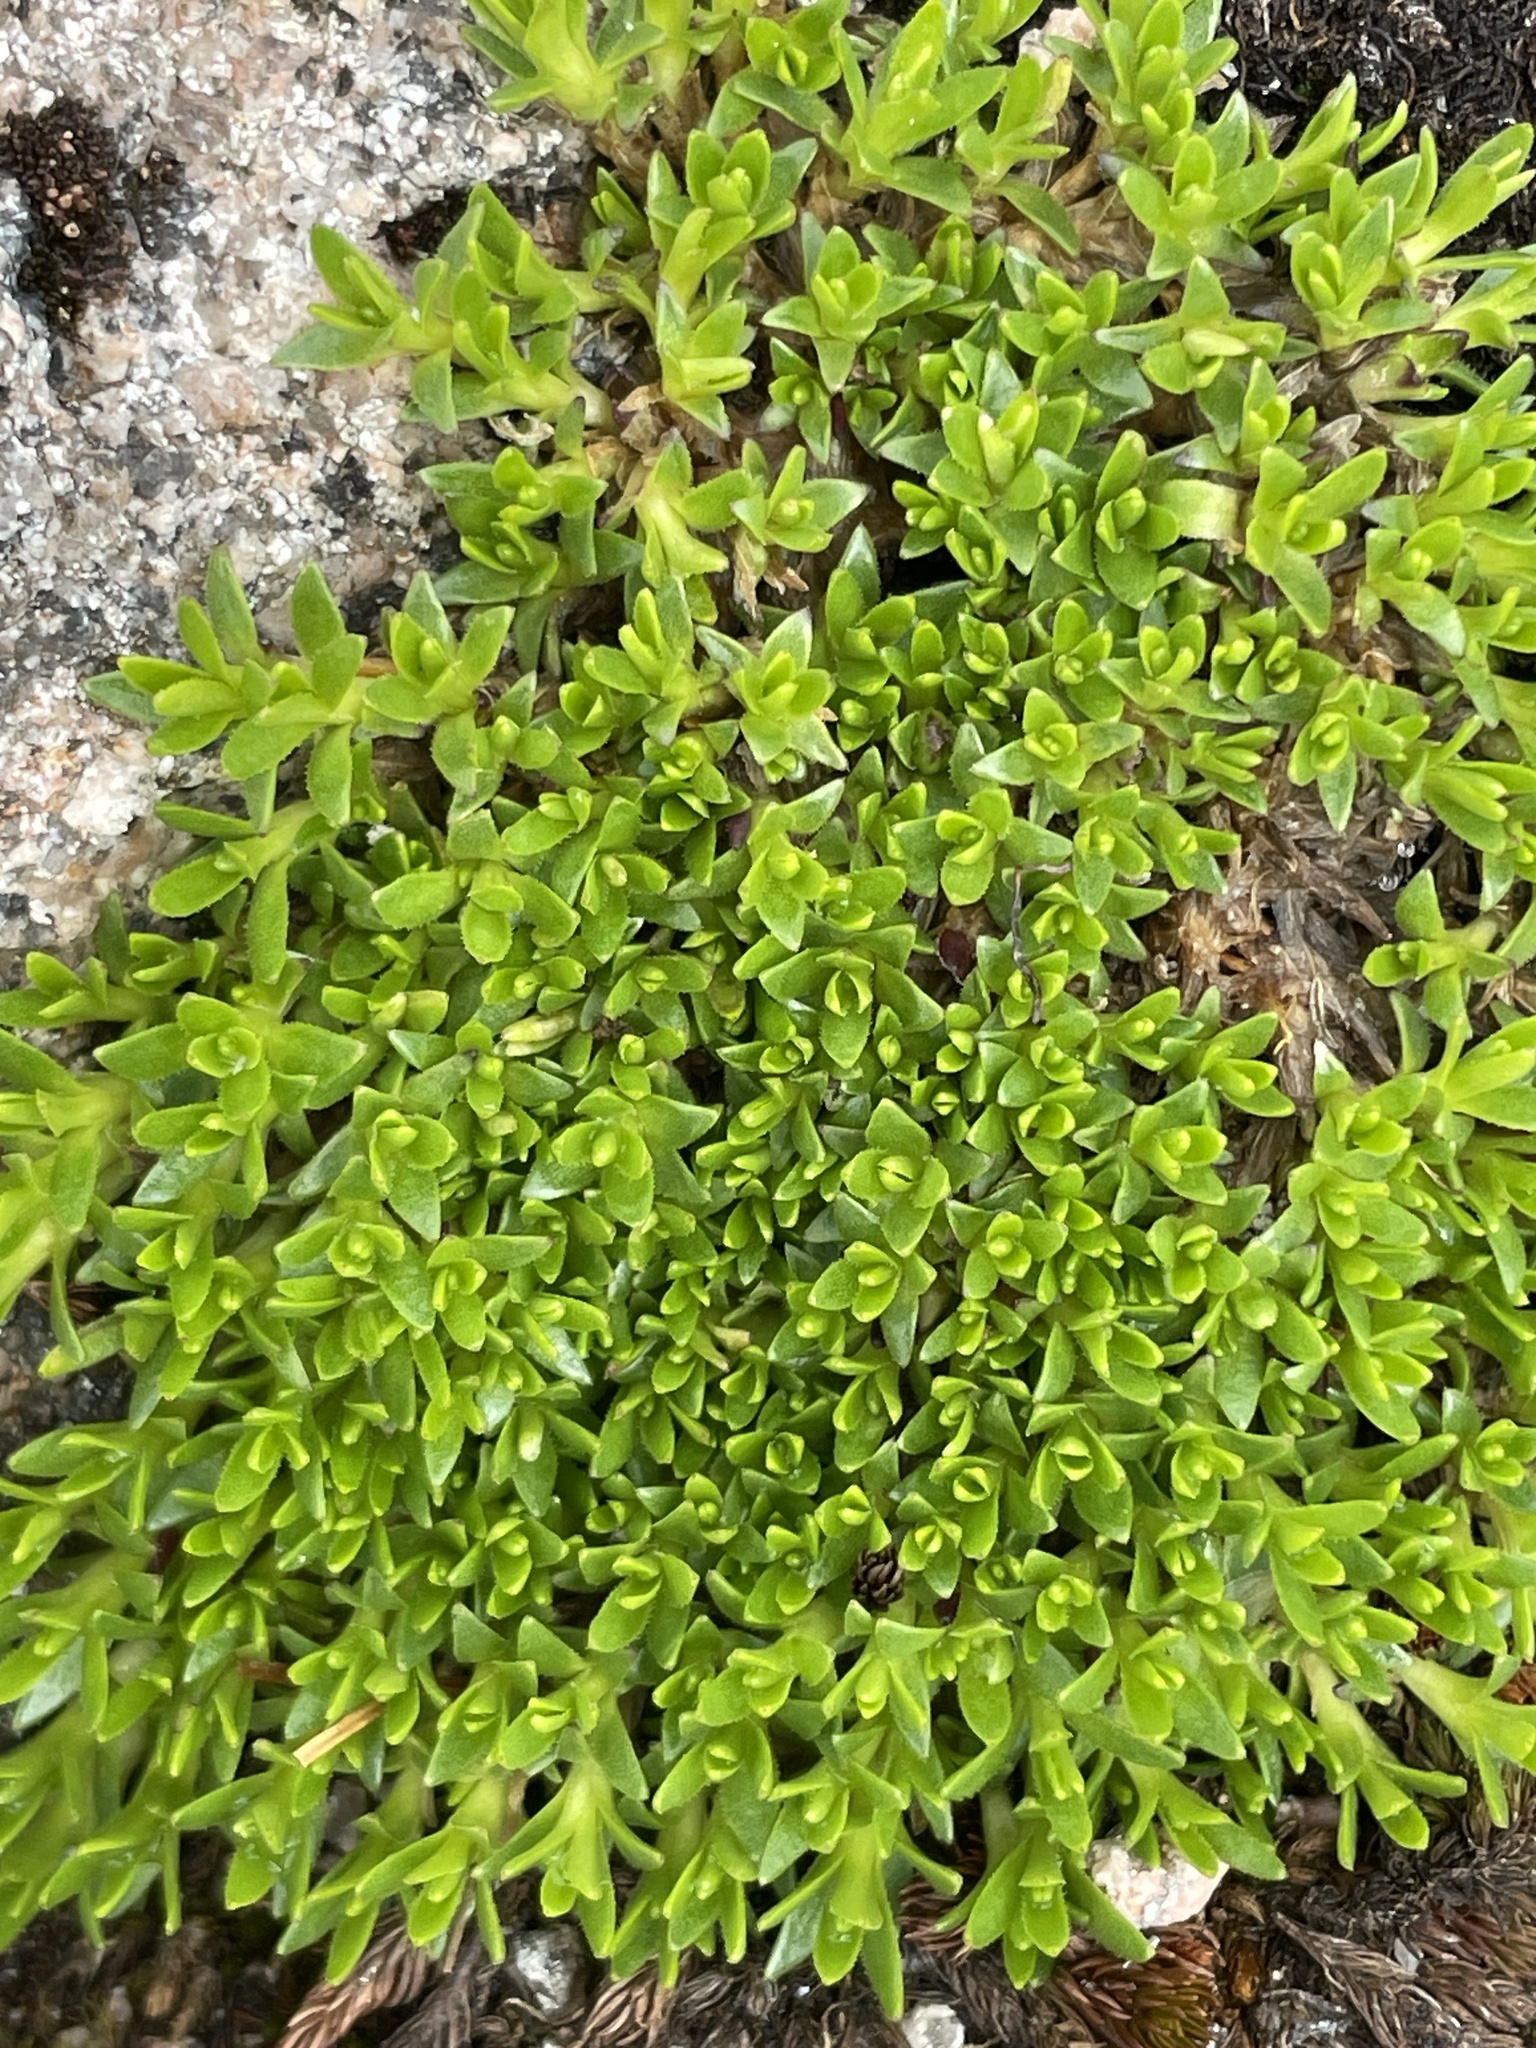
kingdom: Plantae
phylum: Tracheophyta
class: Magnoliopsida
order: Caryophyllales
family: Caryophyllaceae
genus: Silene
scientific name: Silene acaulis
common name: Moss campion
